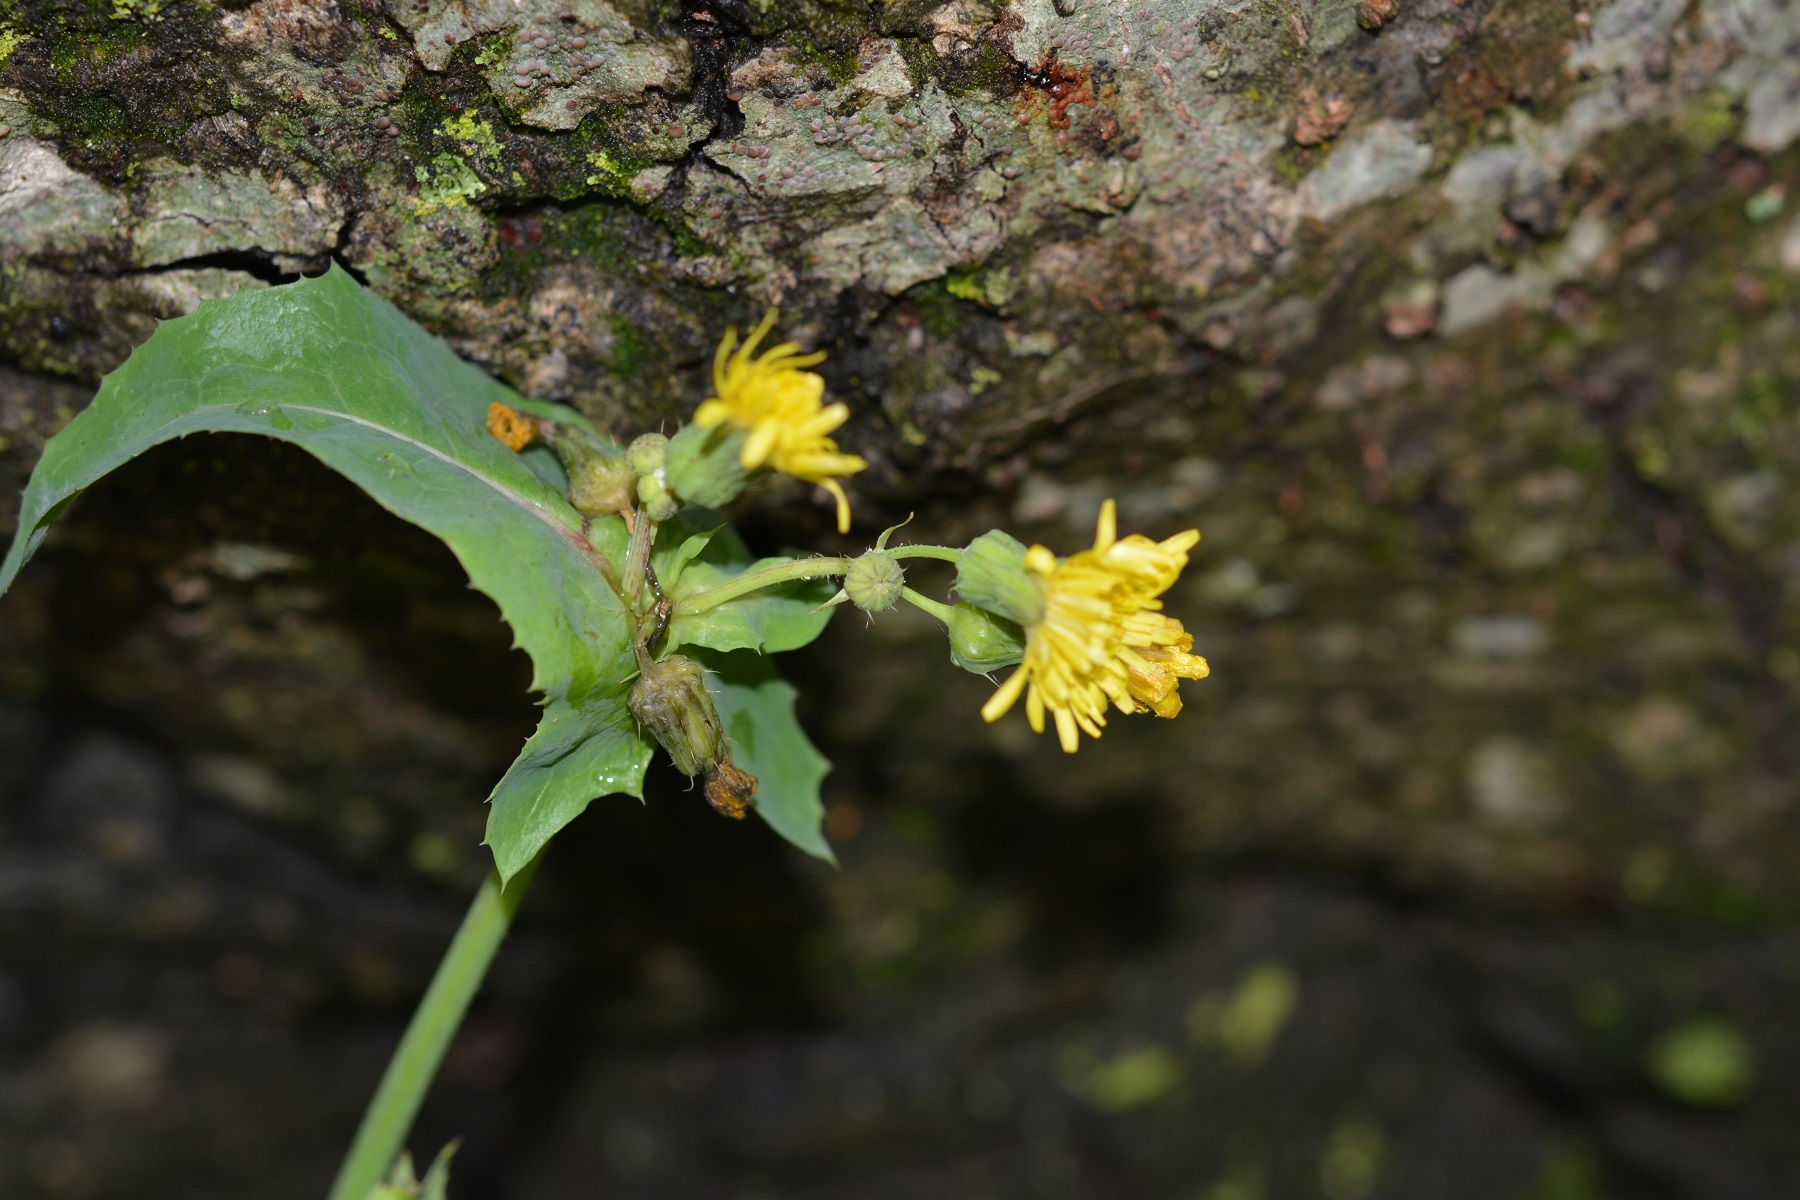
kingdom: Plantae
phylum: Tracheophyta
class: Magnoliopsida
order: Asterales
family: Asteraceae
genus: Sonchus
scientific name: Sonchus oleraceus
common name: Common sowthistle
